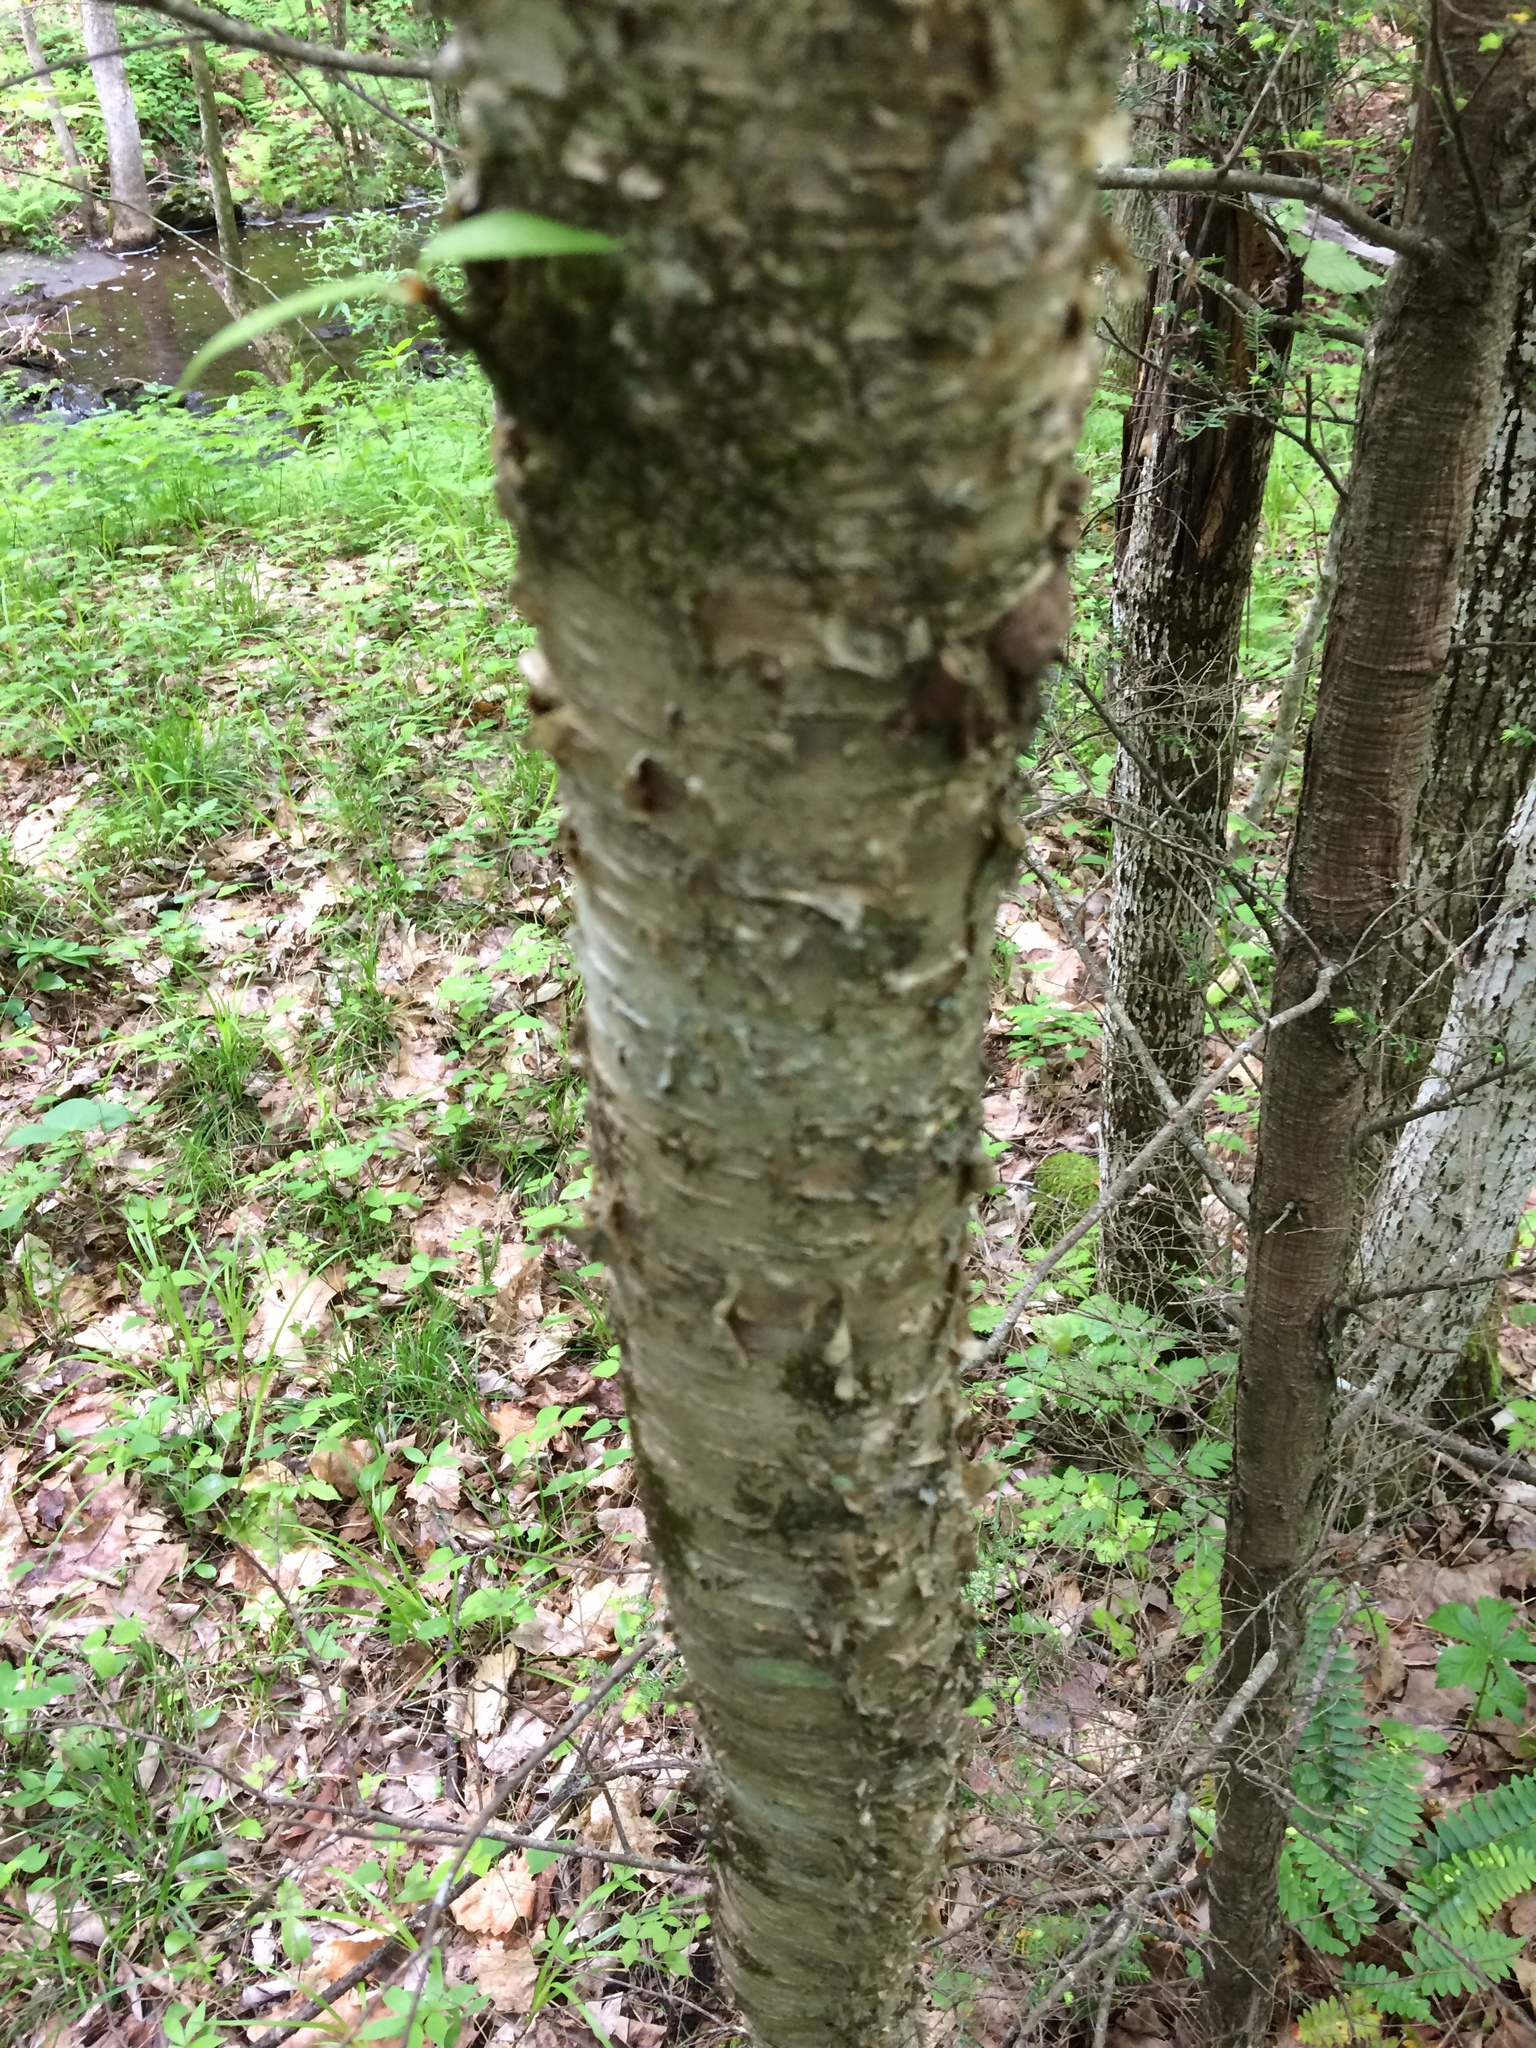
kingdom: Plantae
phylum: Tracheophyta
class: Magnoliopsida
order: Fagales
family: Betulaceae
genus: Betula
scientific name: Betula alleghaniensis
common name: Yellow birch
